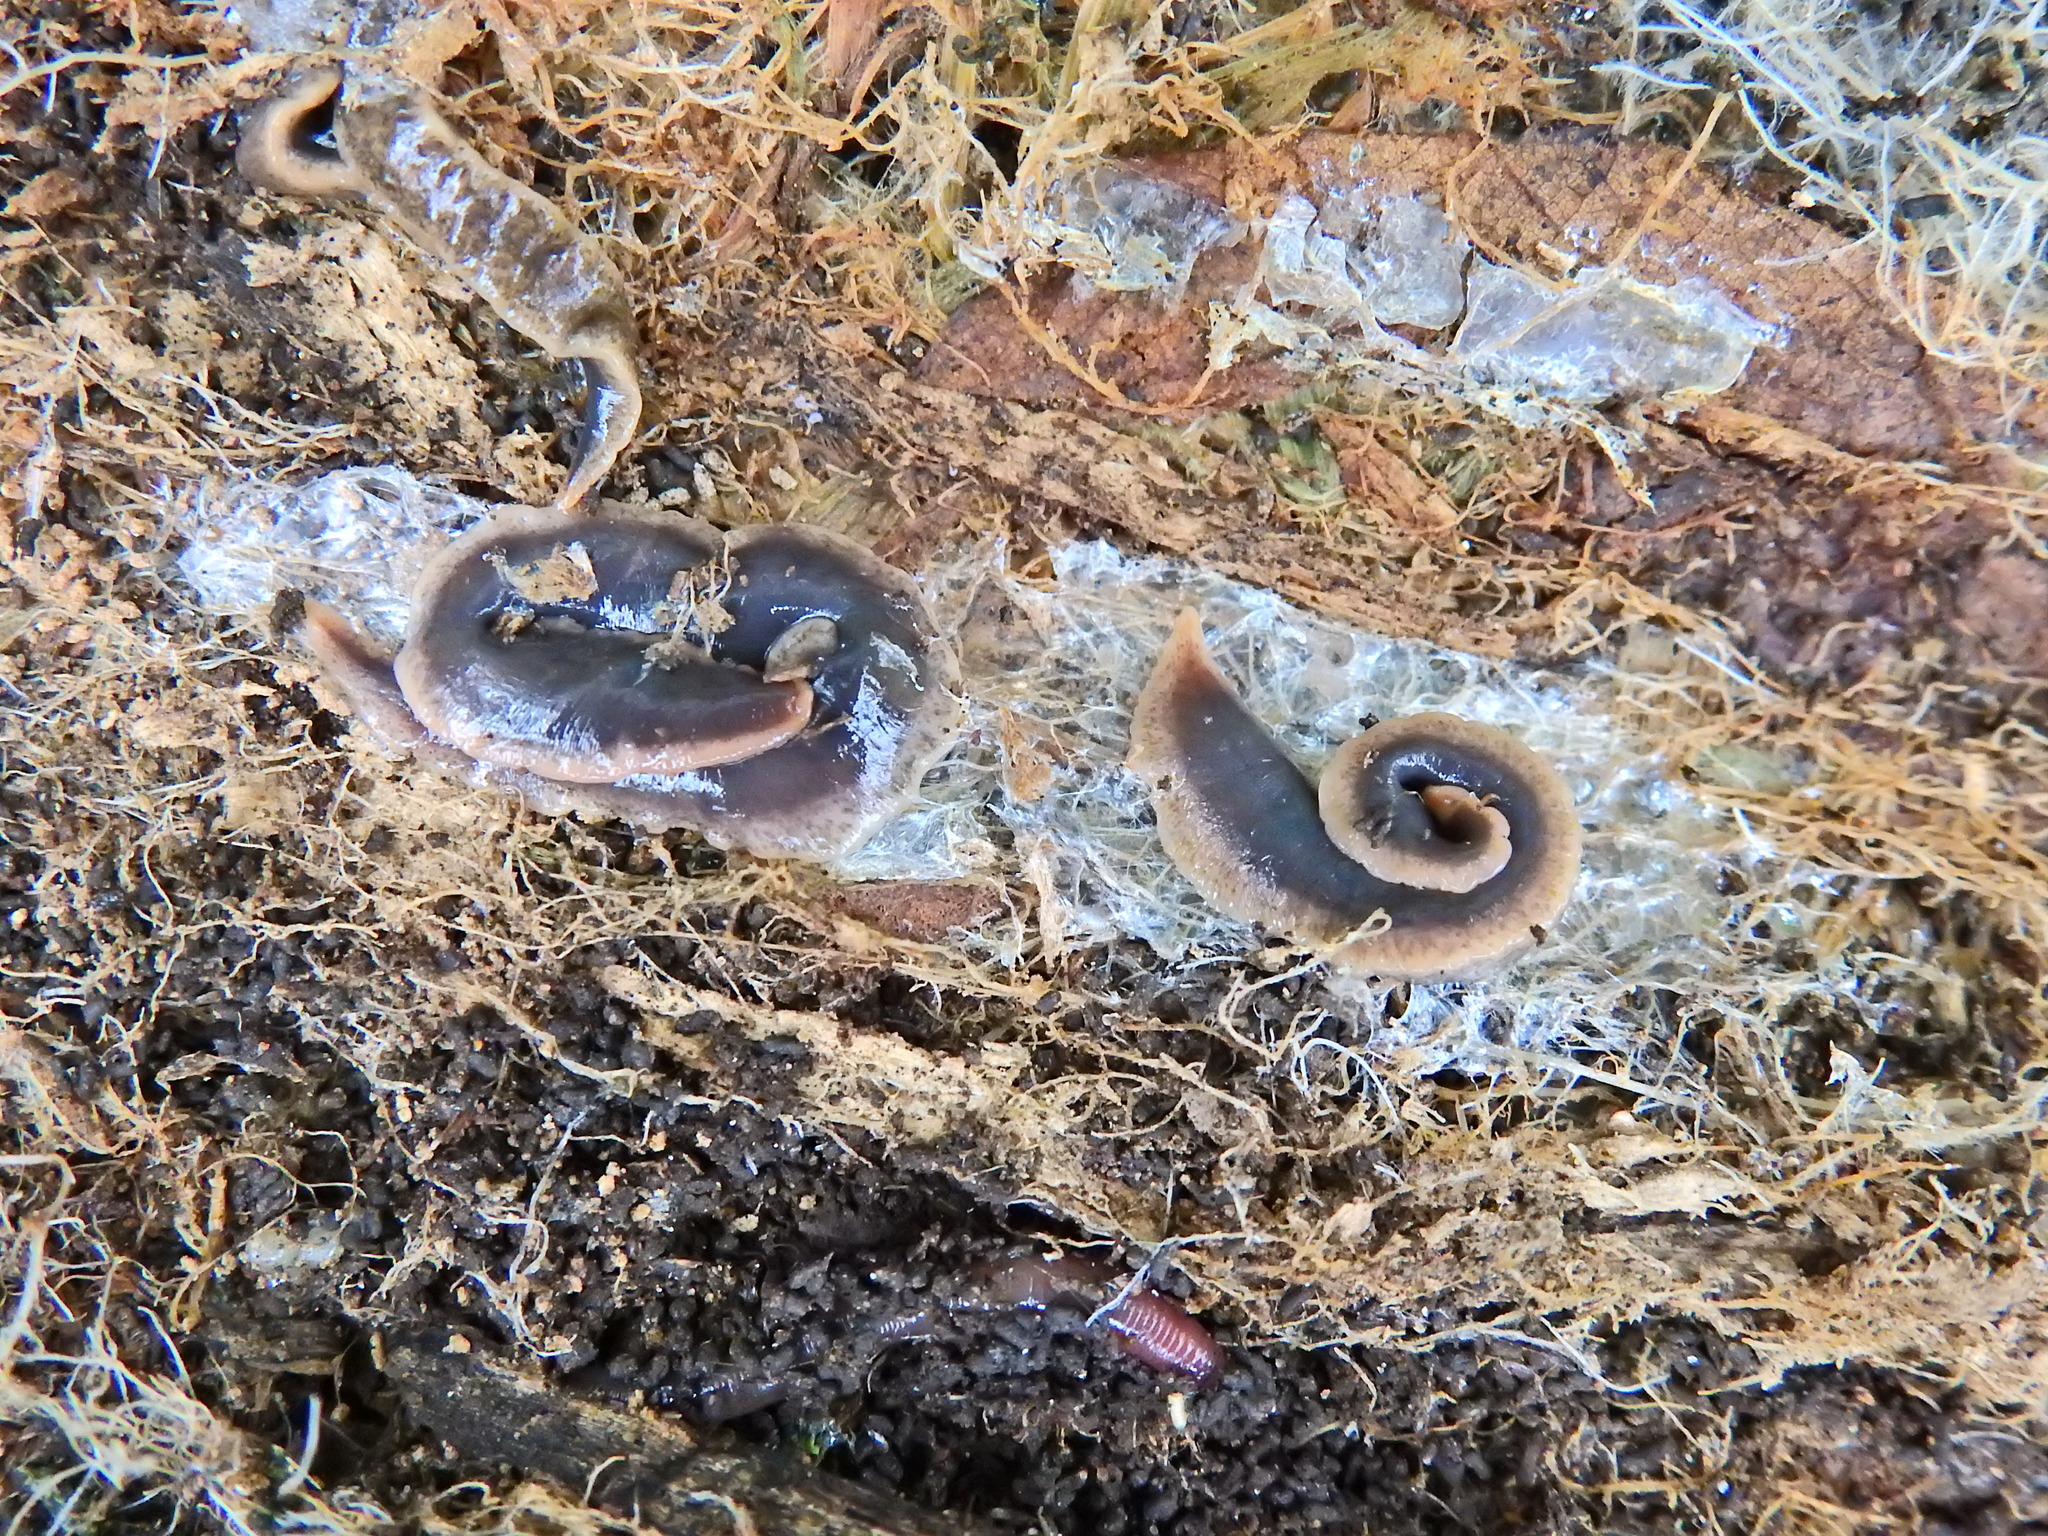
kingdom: Animalia
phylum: Platyhelminthes
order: Tricladida
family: Geoplanidae
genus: Arthurdendyus
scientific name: Arthurdendyus triangulatus
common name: New zealand flatworm
